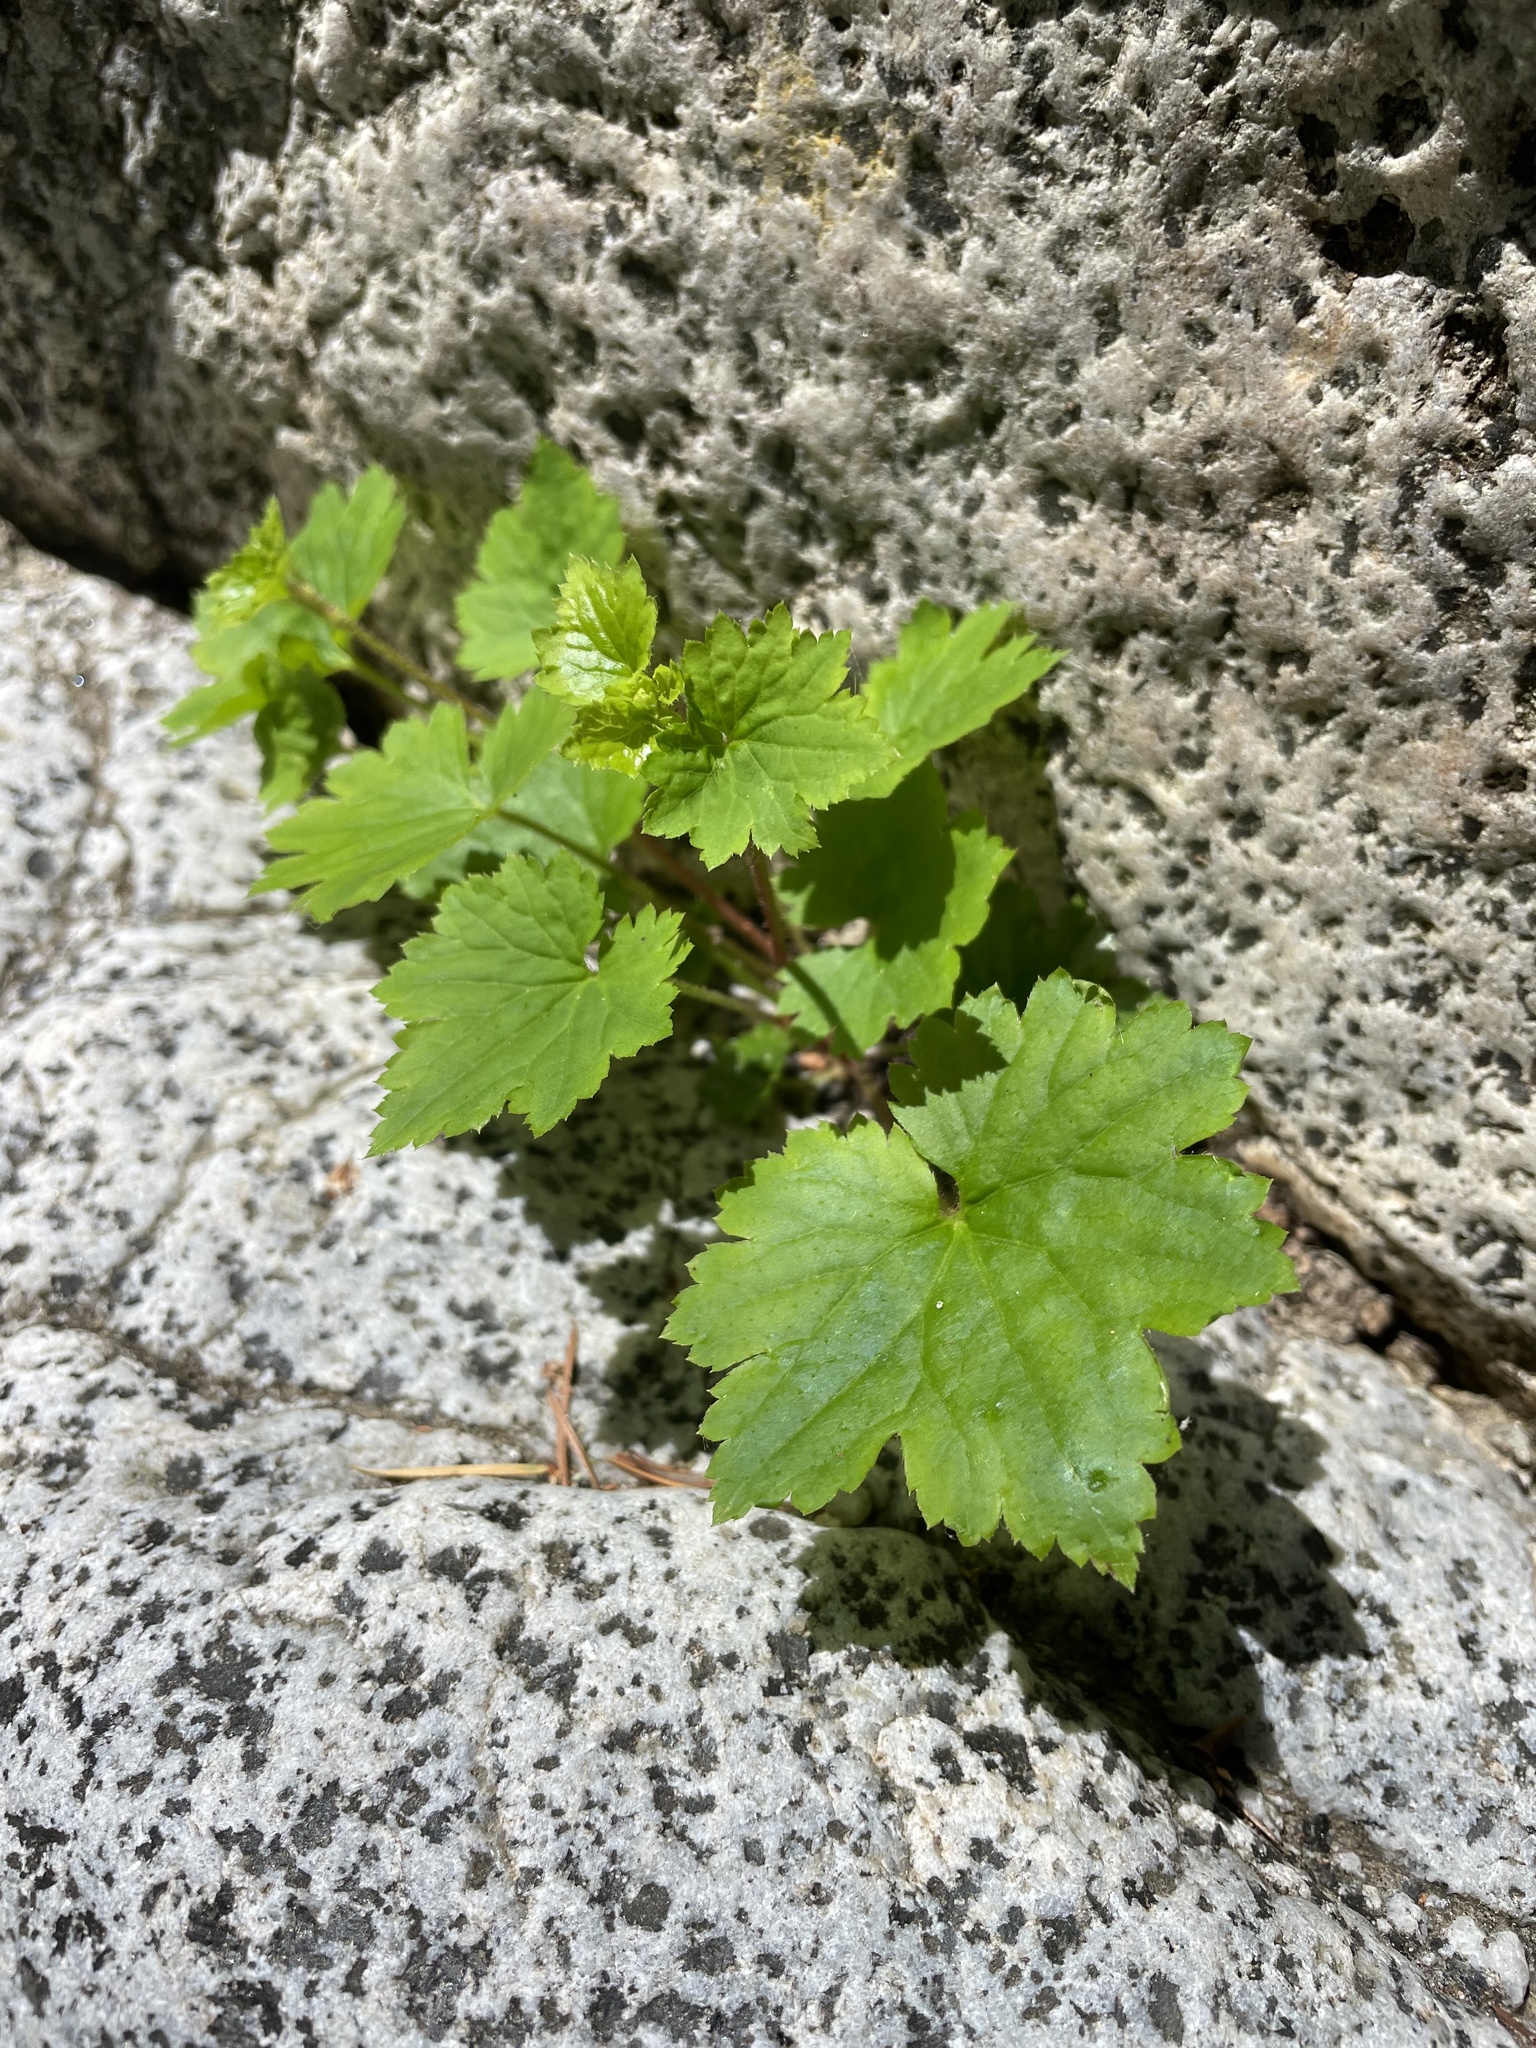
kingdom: Plantae
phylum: Tracheophyta
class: Magnoliopsida
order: Saxifragales
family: Saxifragaceae
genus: Boykinia
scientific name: Boykinia occidentalis
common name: Coast boykinia
